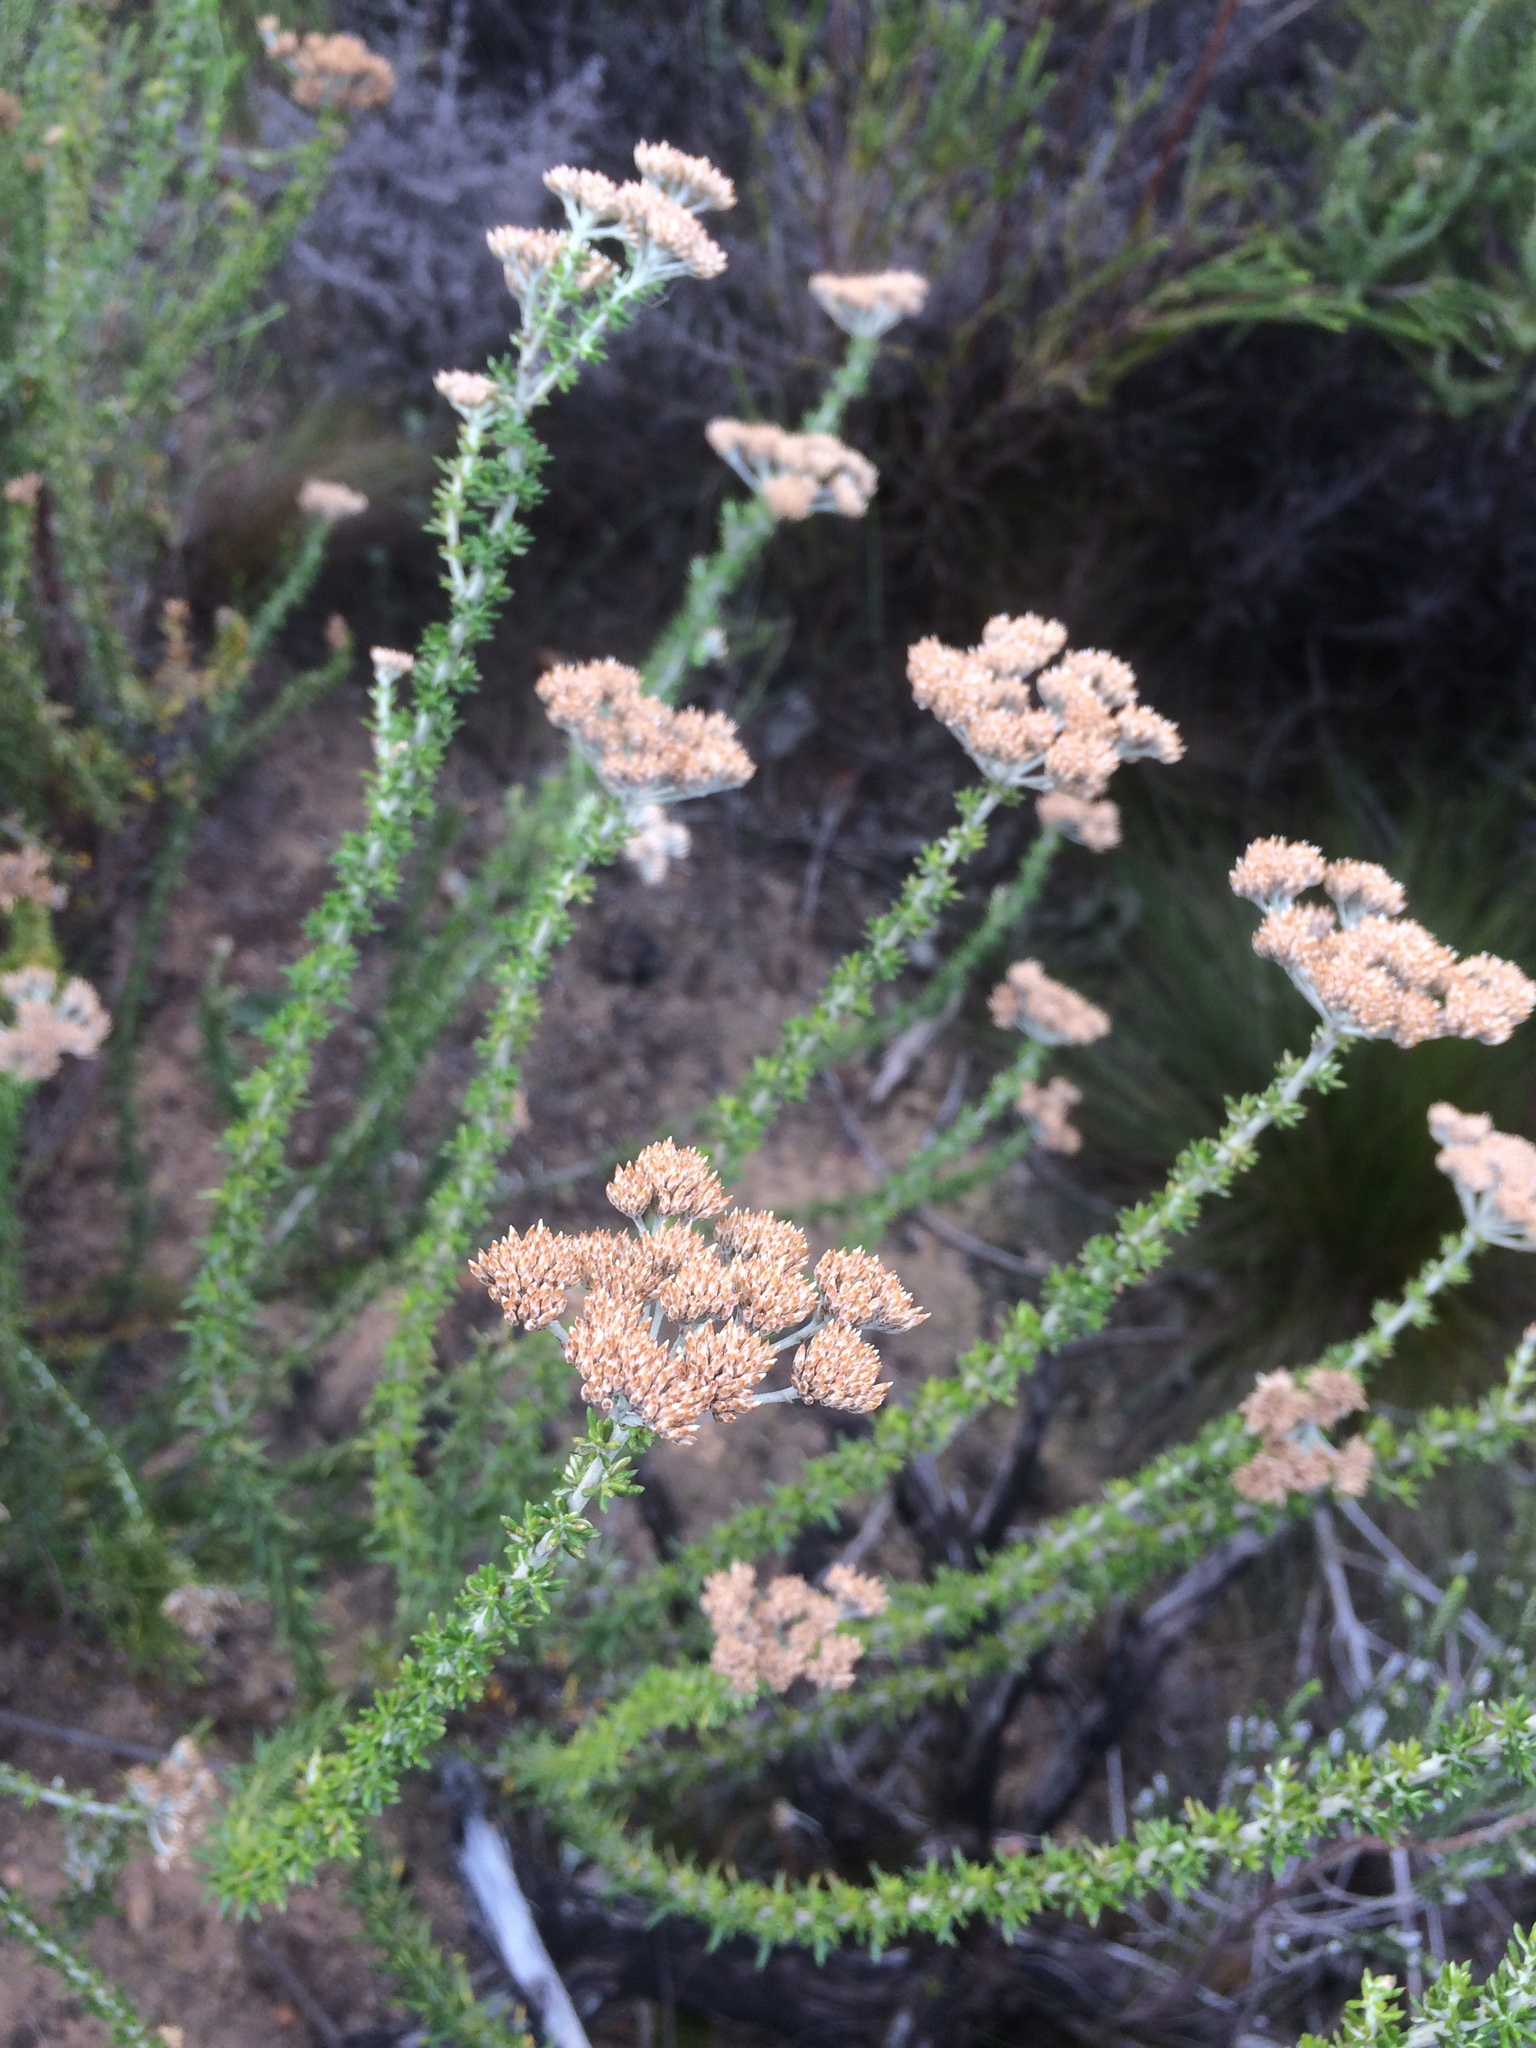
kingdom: Plantae
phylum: Tracheophyta
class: Magnoliopsida
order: Asterales
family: Asteraceae
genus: Metalasia
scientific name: Metalasia densa
